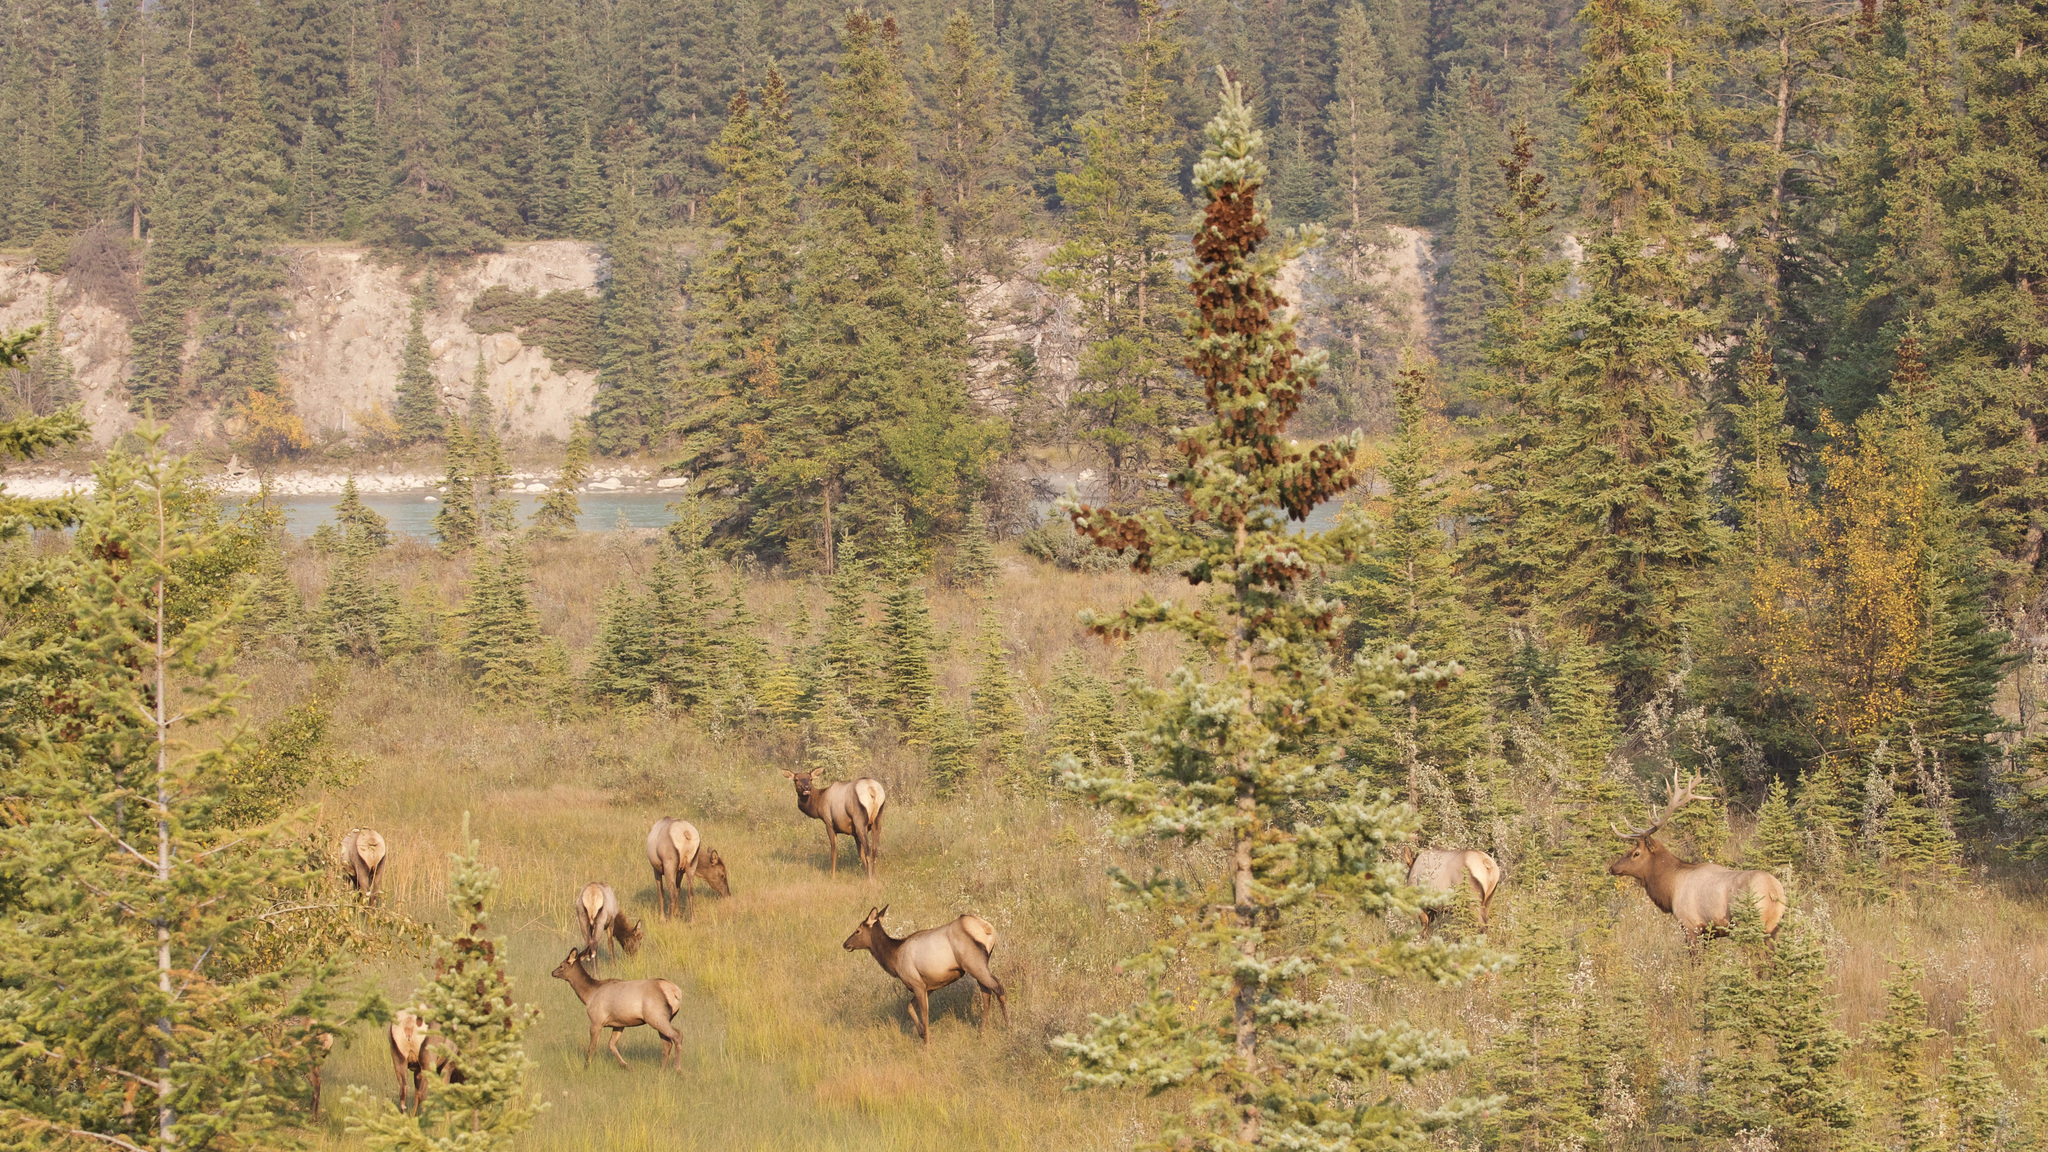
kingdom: Animalia
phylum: Chordata
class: Mammalia
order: Artiodactyla
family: Cervidae
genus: Cervus
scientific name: Cervus elaphus
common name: Red deer
